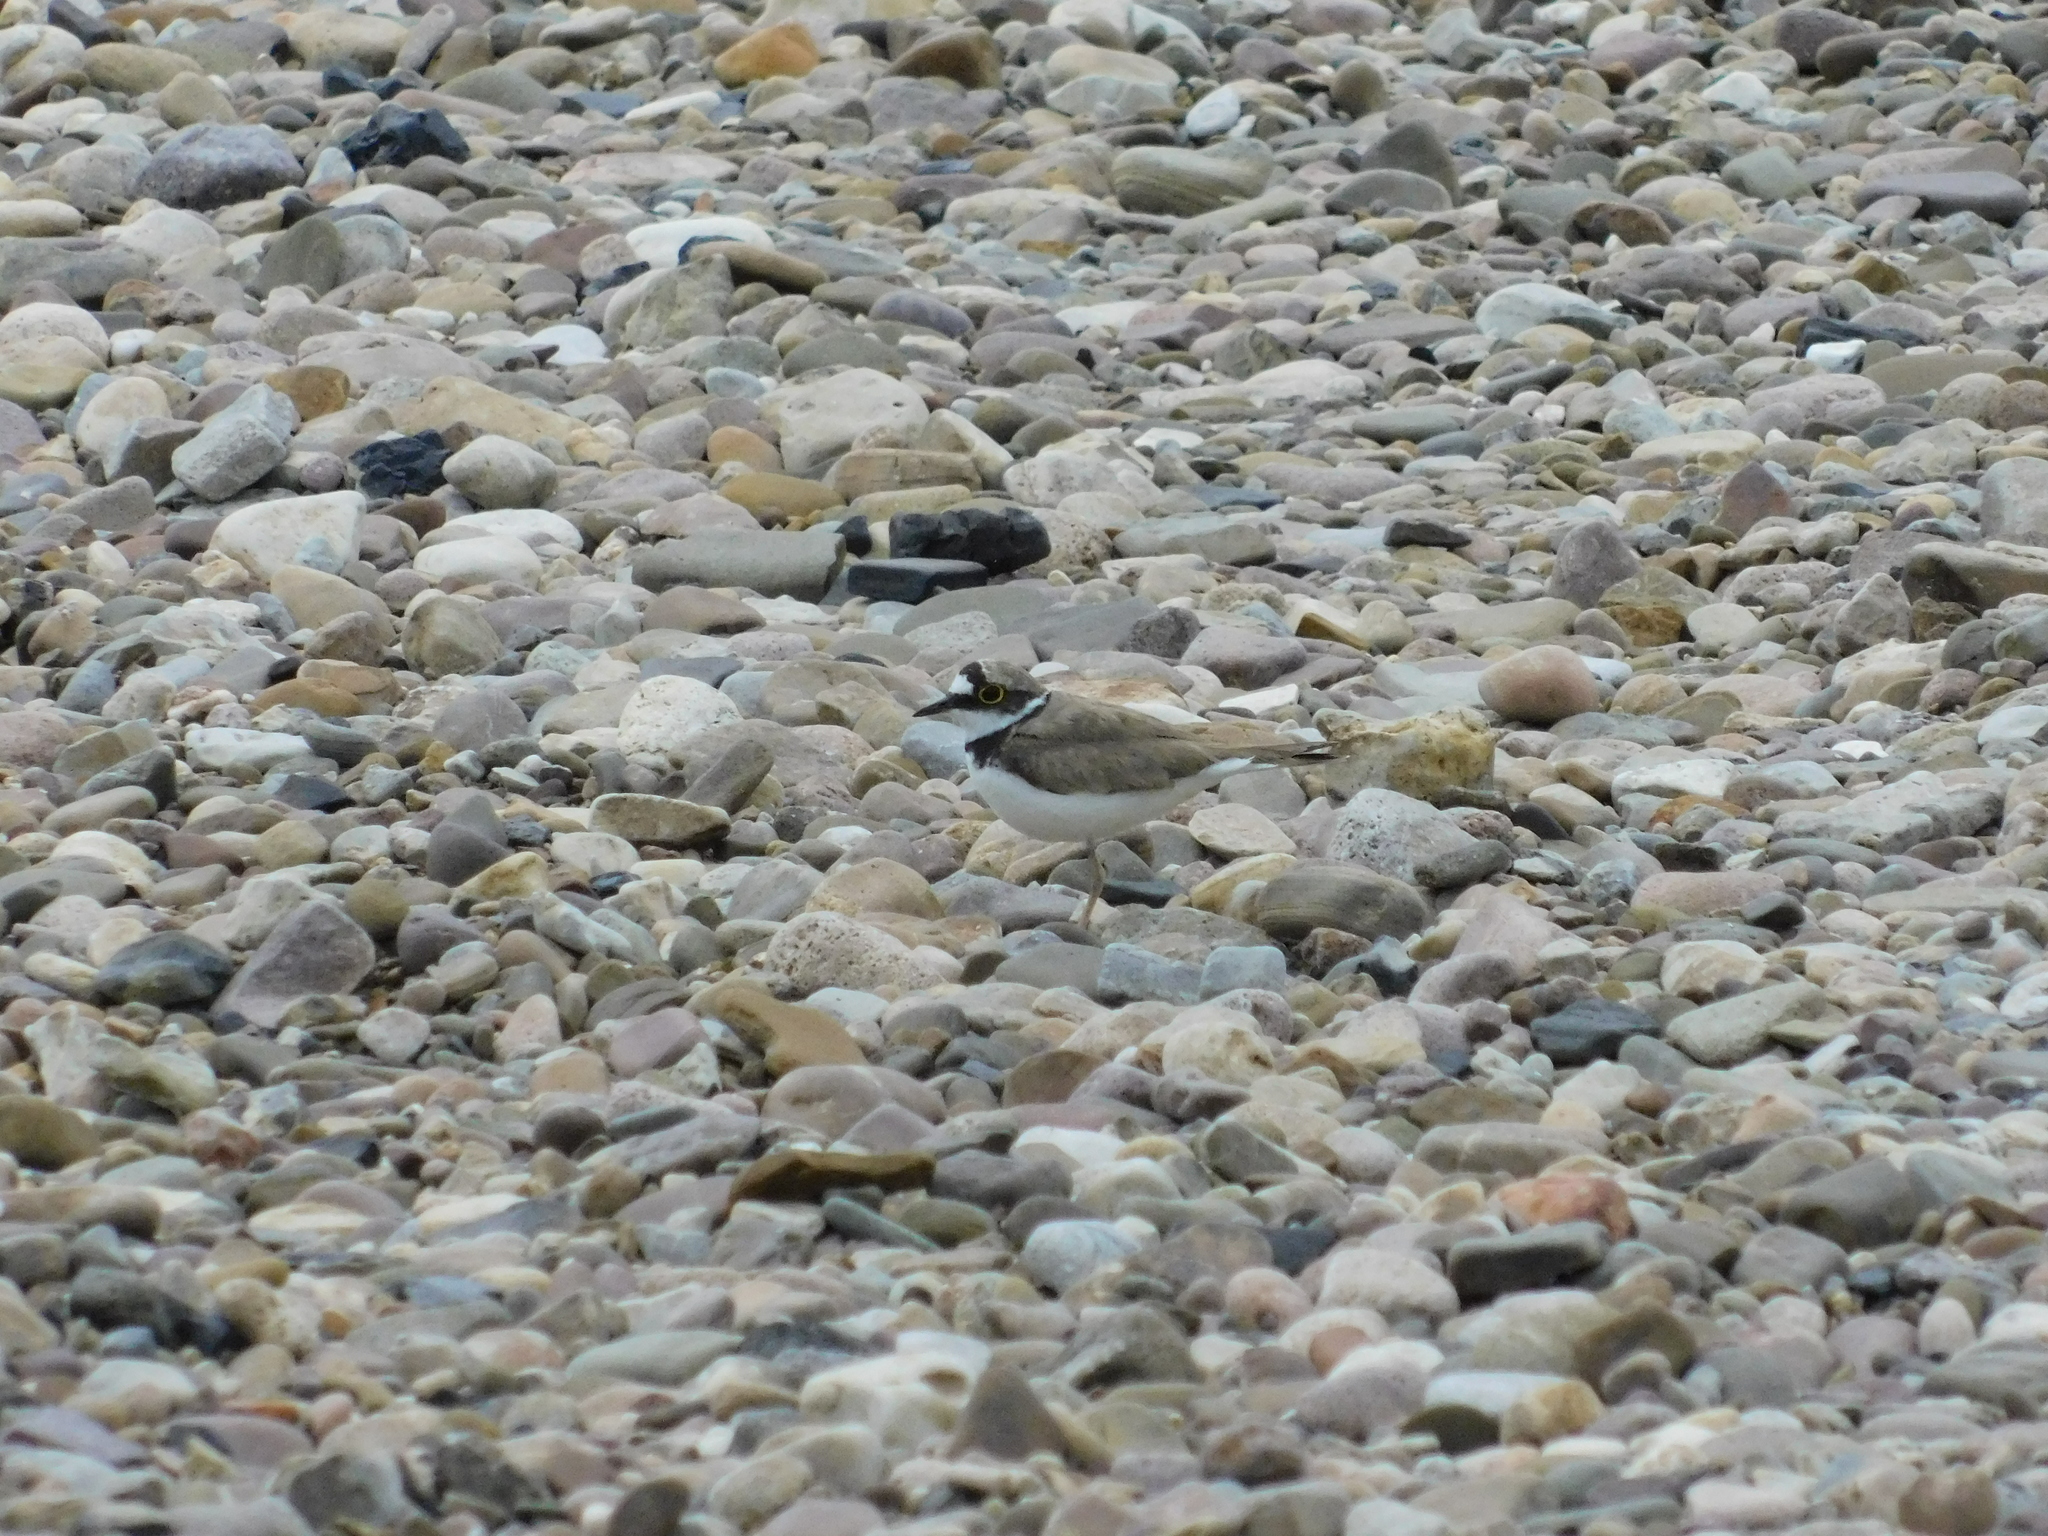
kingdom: Animalia
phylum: Chordata
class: Aves
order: Charadriiformes
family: Charadriidae
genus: Charadrius
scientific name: Charadrius dubius
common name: Little ringed plover
